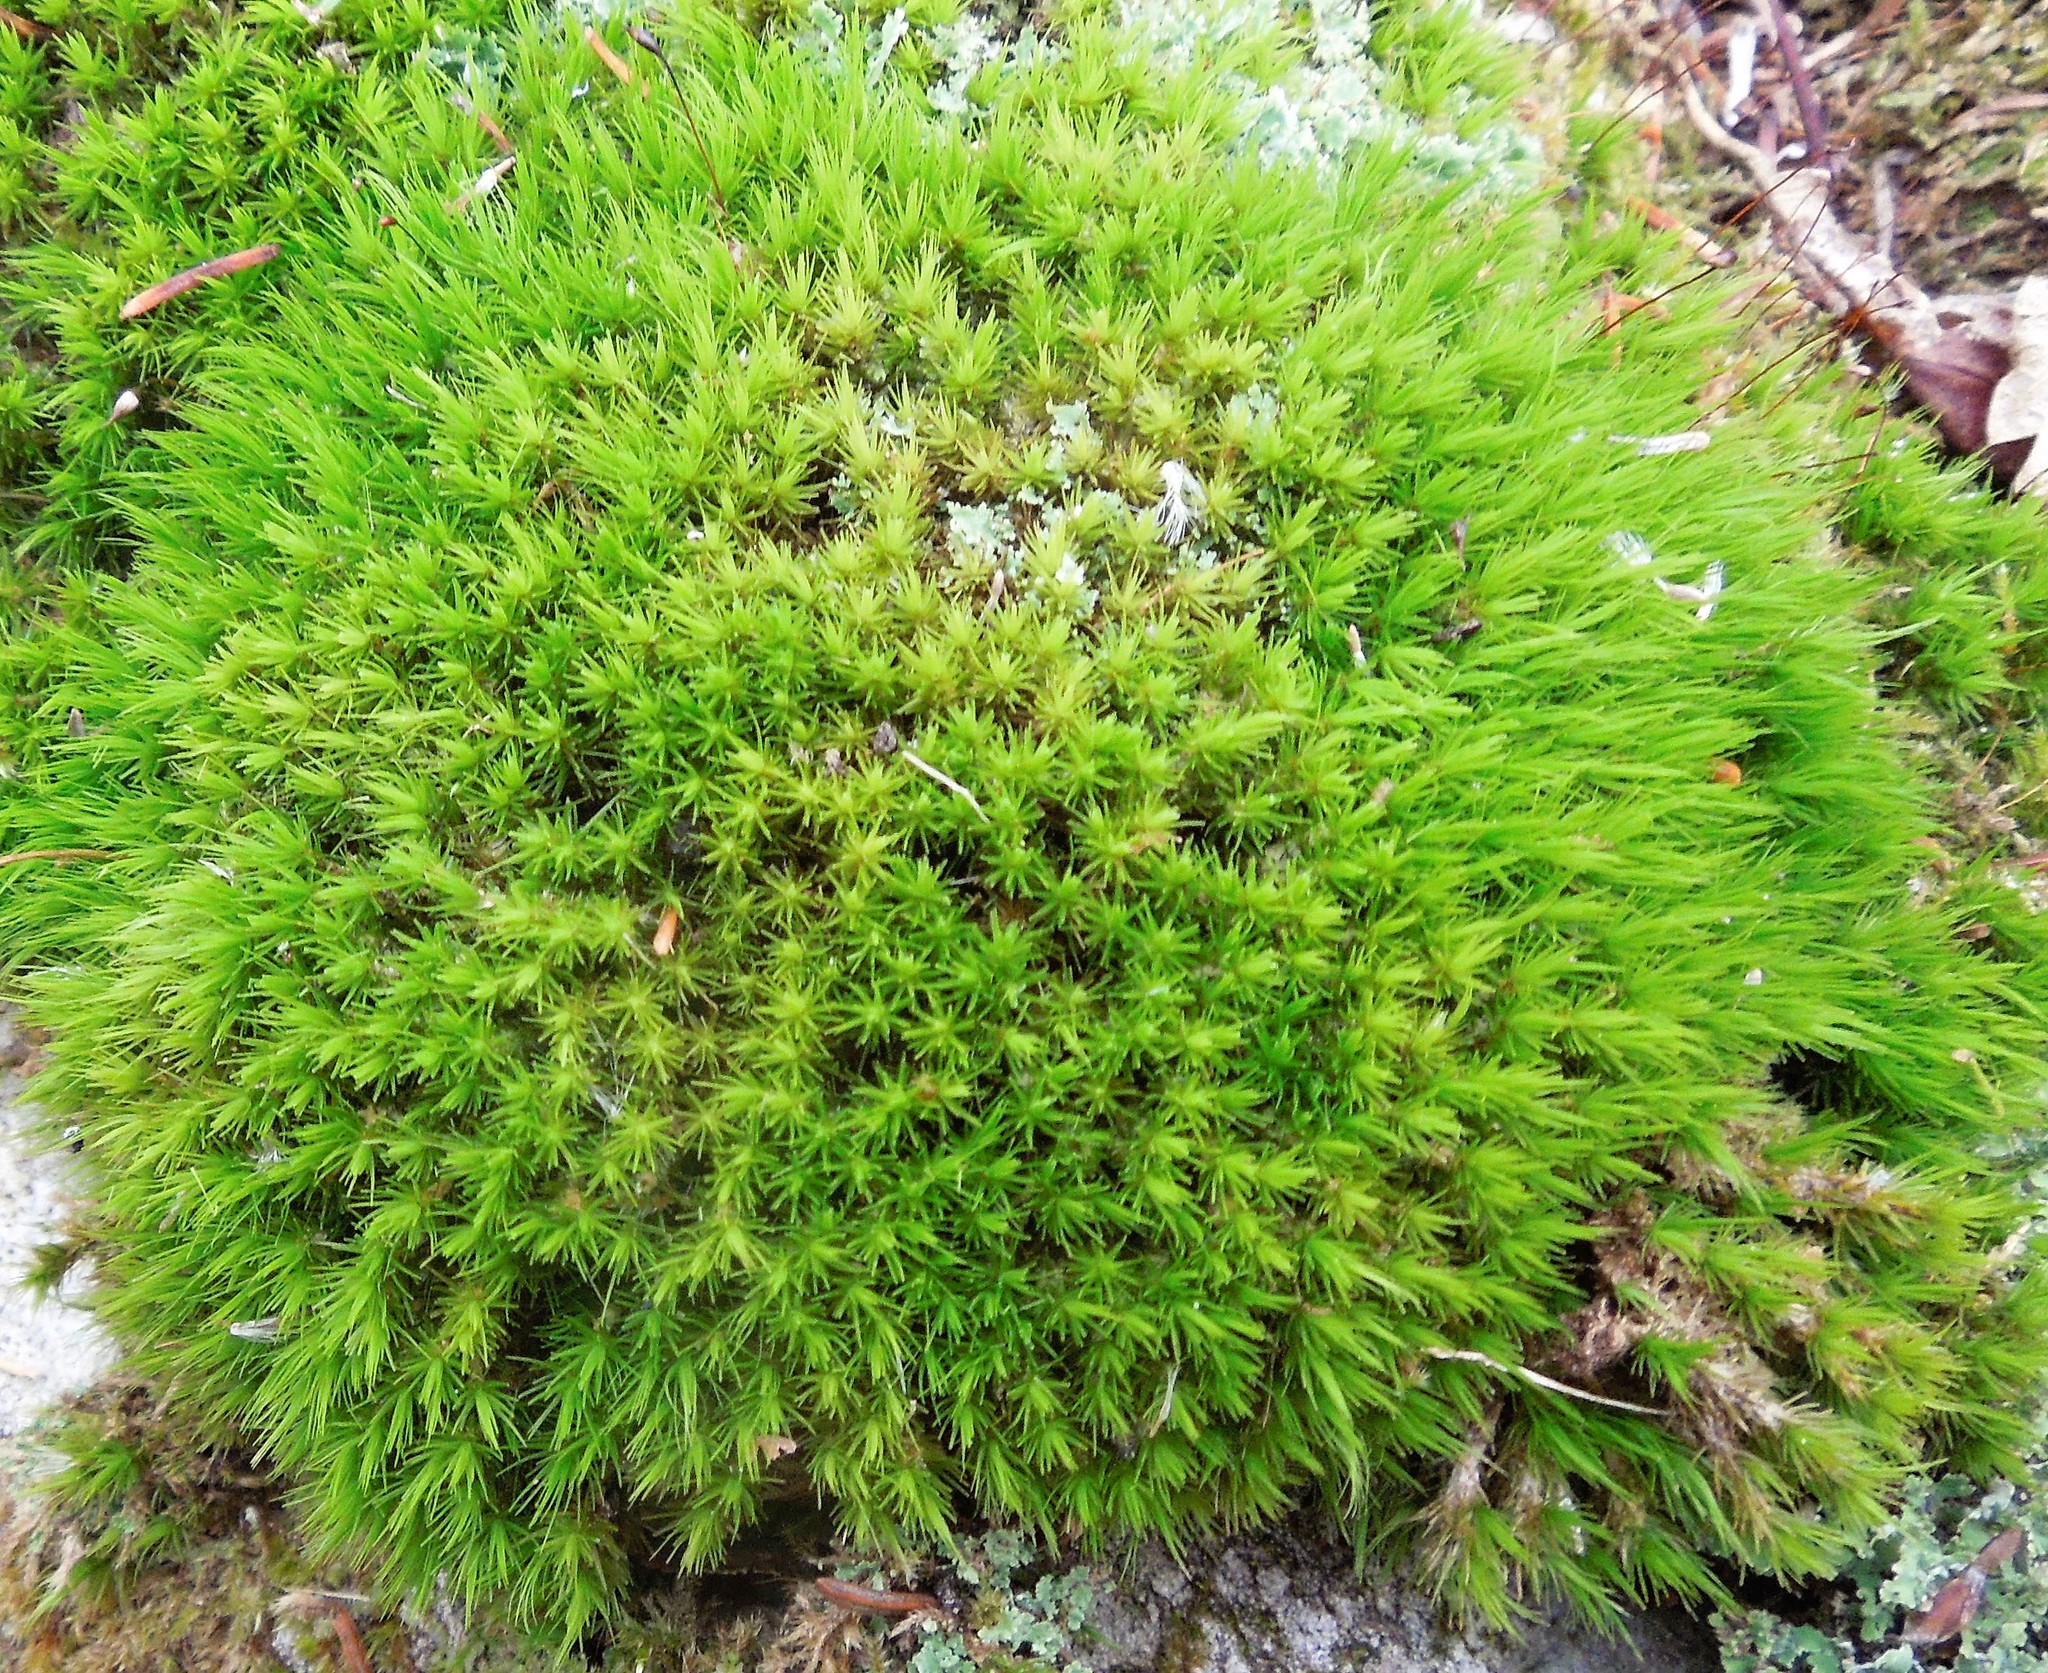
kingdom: Plantae
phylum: Bryophyta
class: Bryopsida
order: Dicranales
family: Dicranaceae
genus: Dicranum
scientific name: Dicranum viride
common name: Green broom moss
